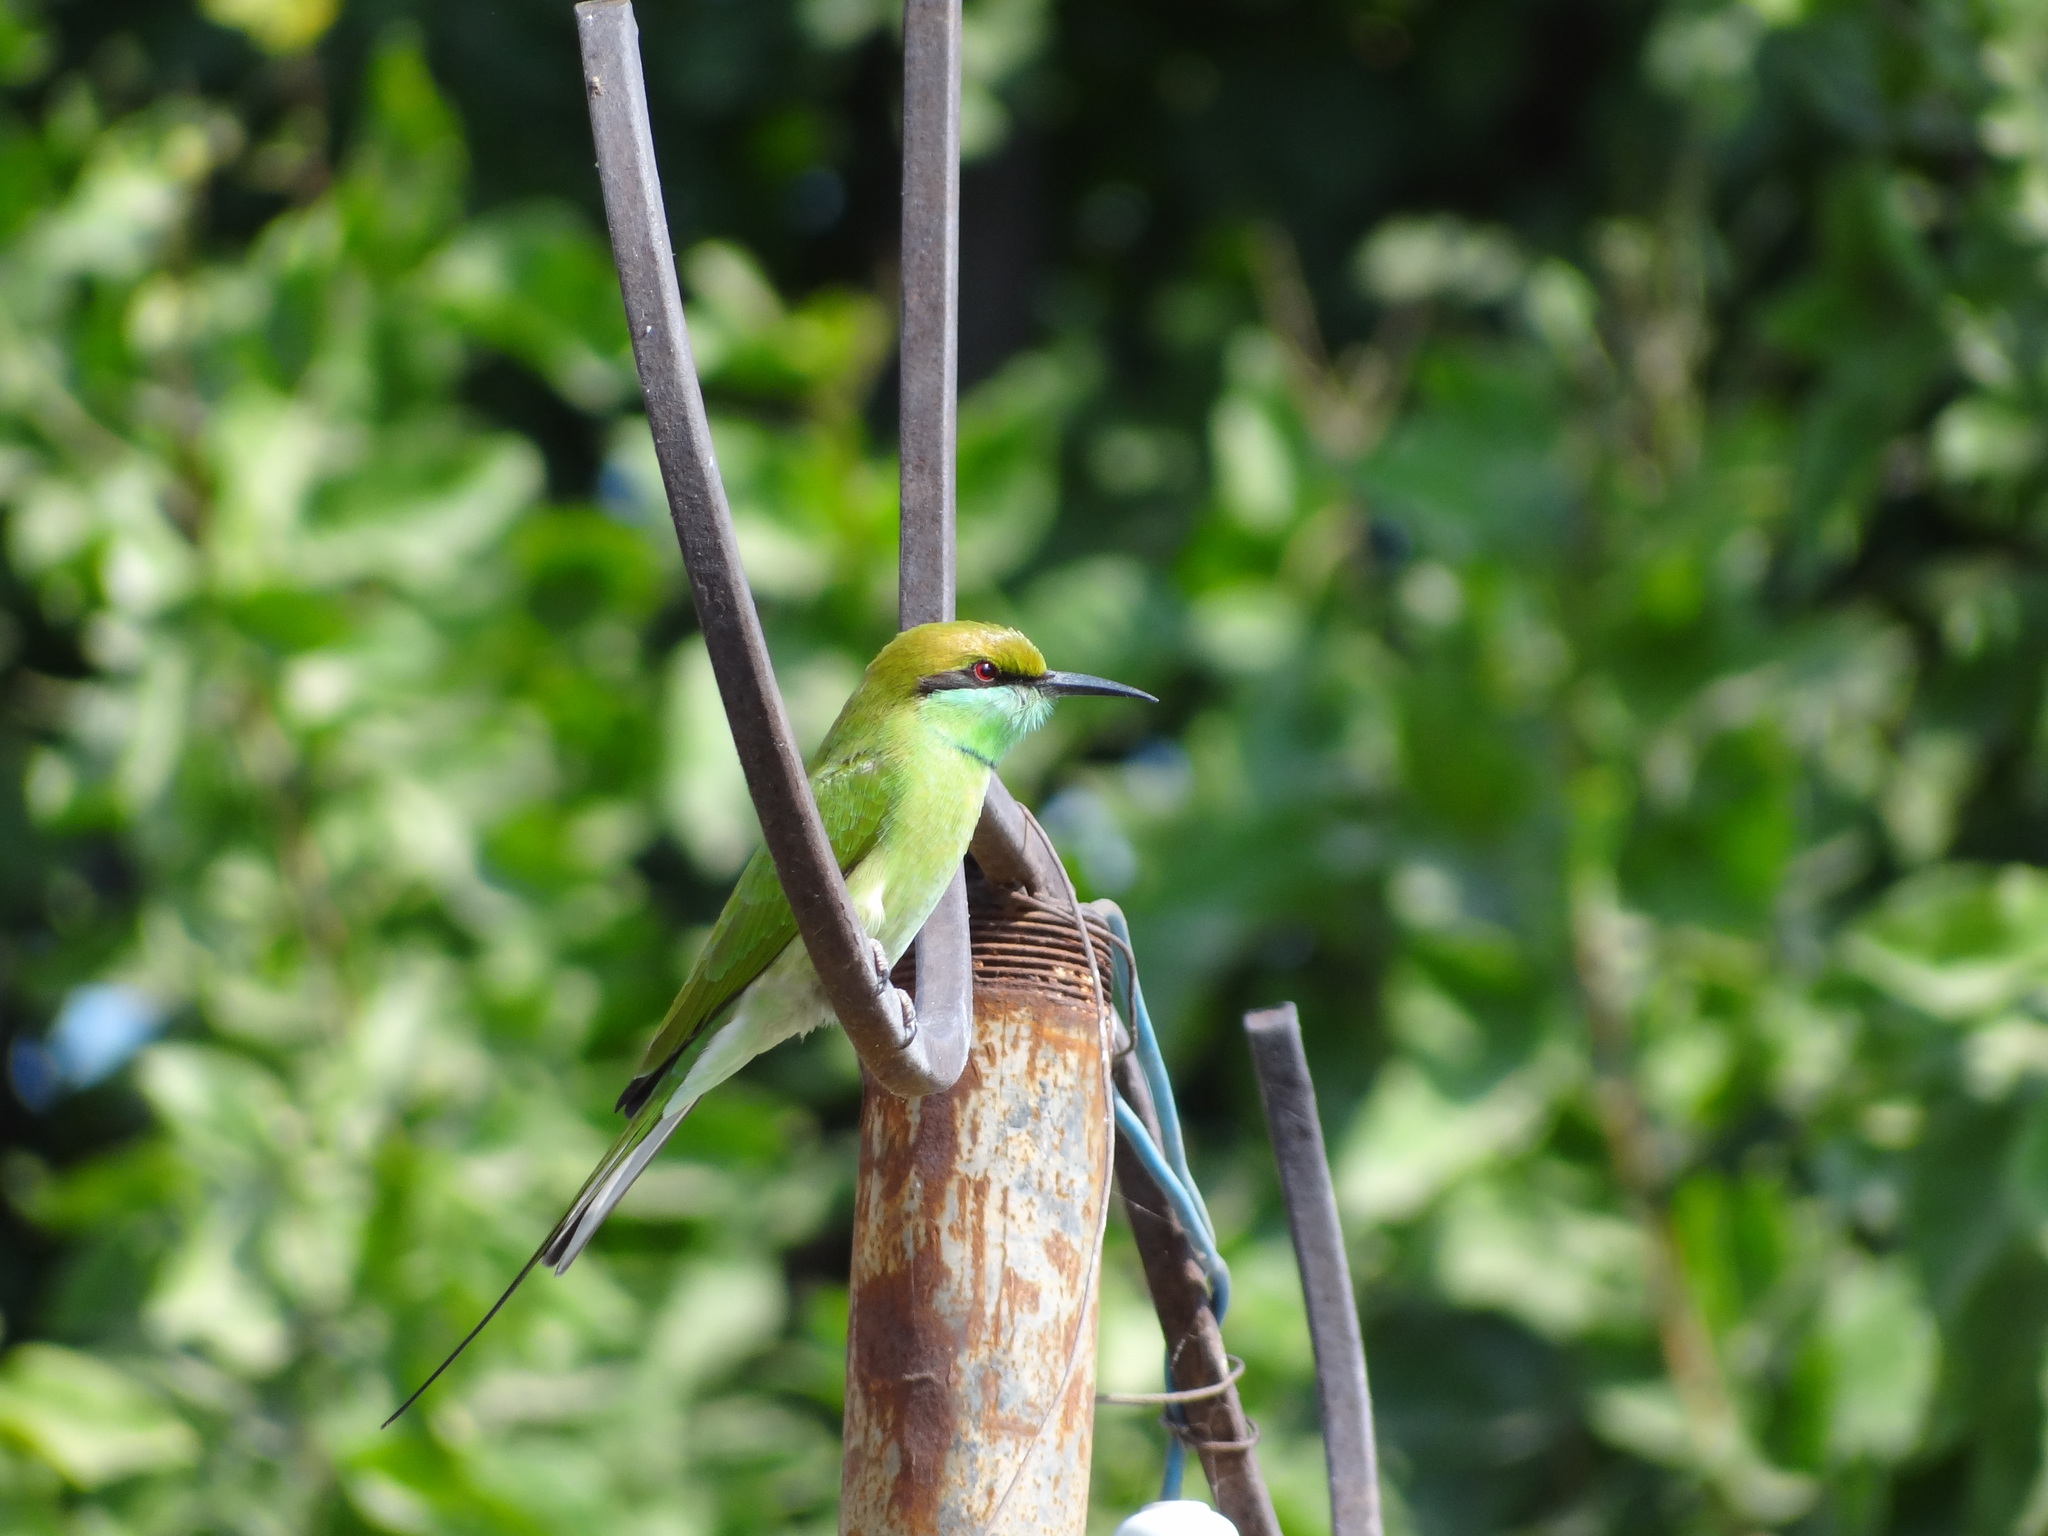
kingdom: Animalia
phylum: Chordata
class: Aves
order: Coraciiformes
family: Meropidae
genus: Merops
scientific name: Merops orientalis
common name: Green bee-eater
